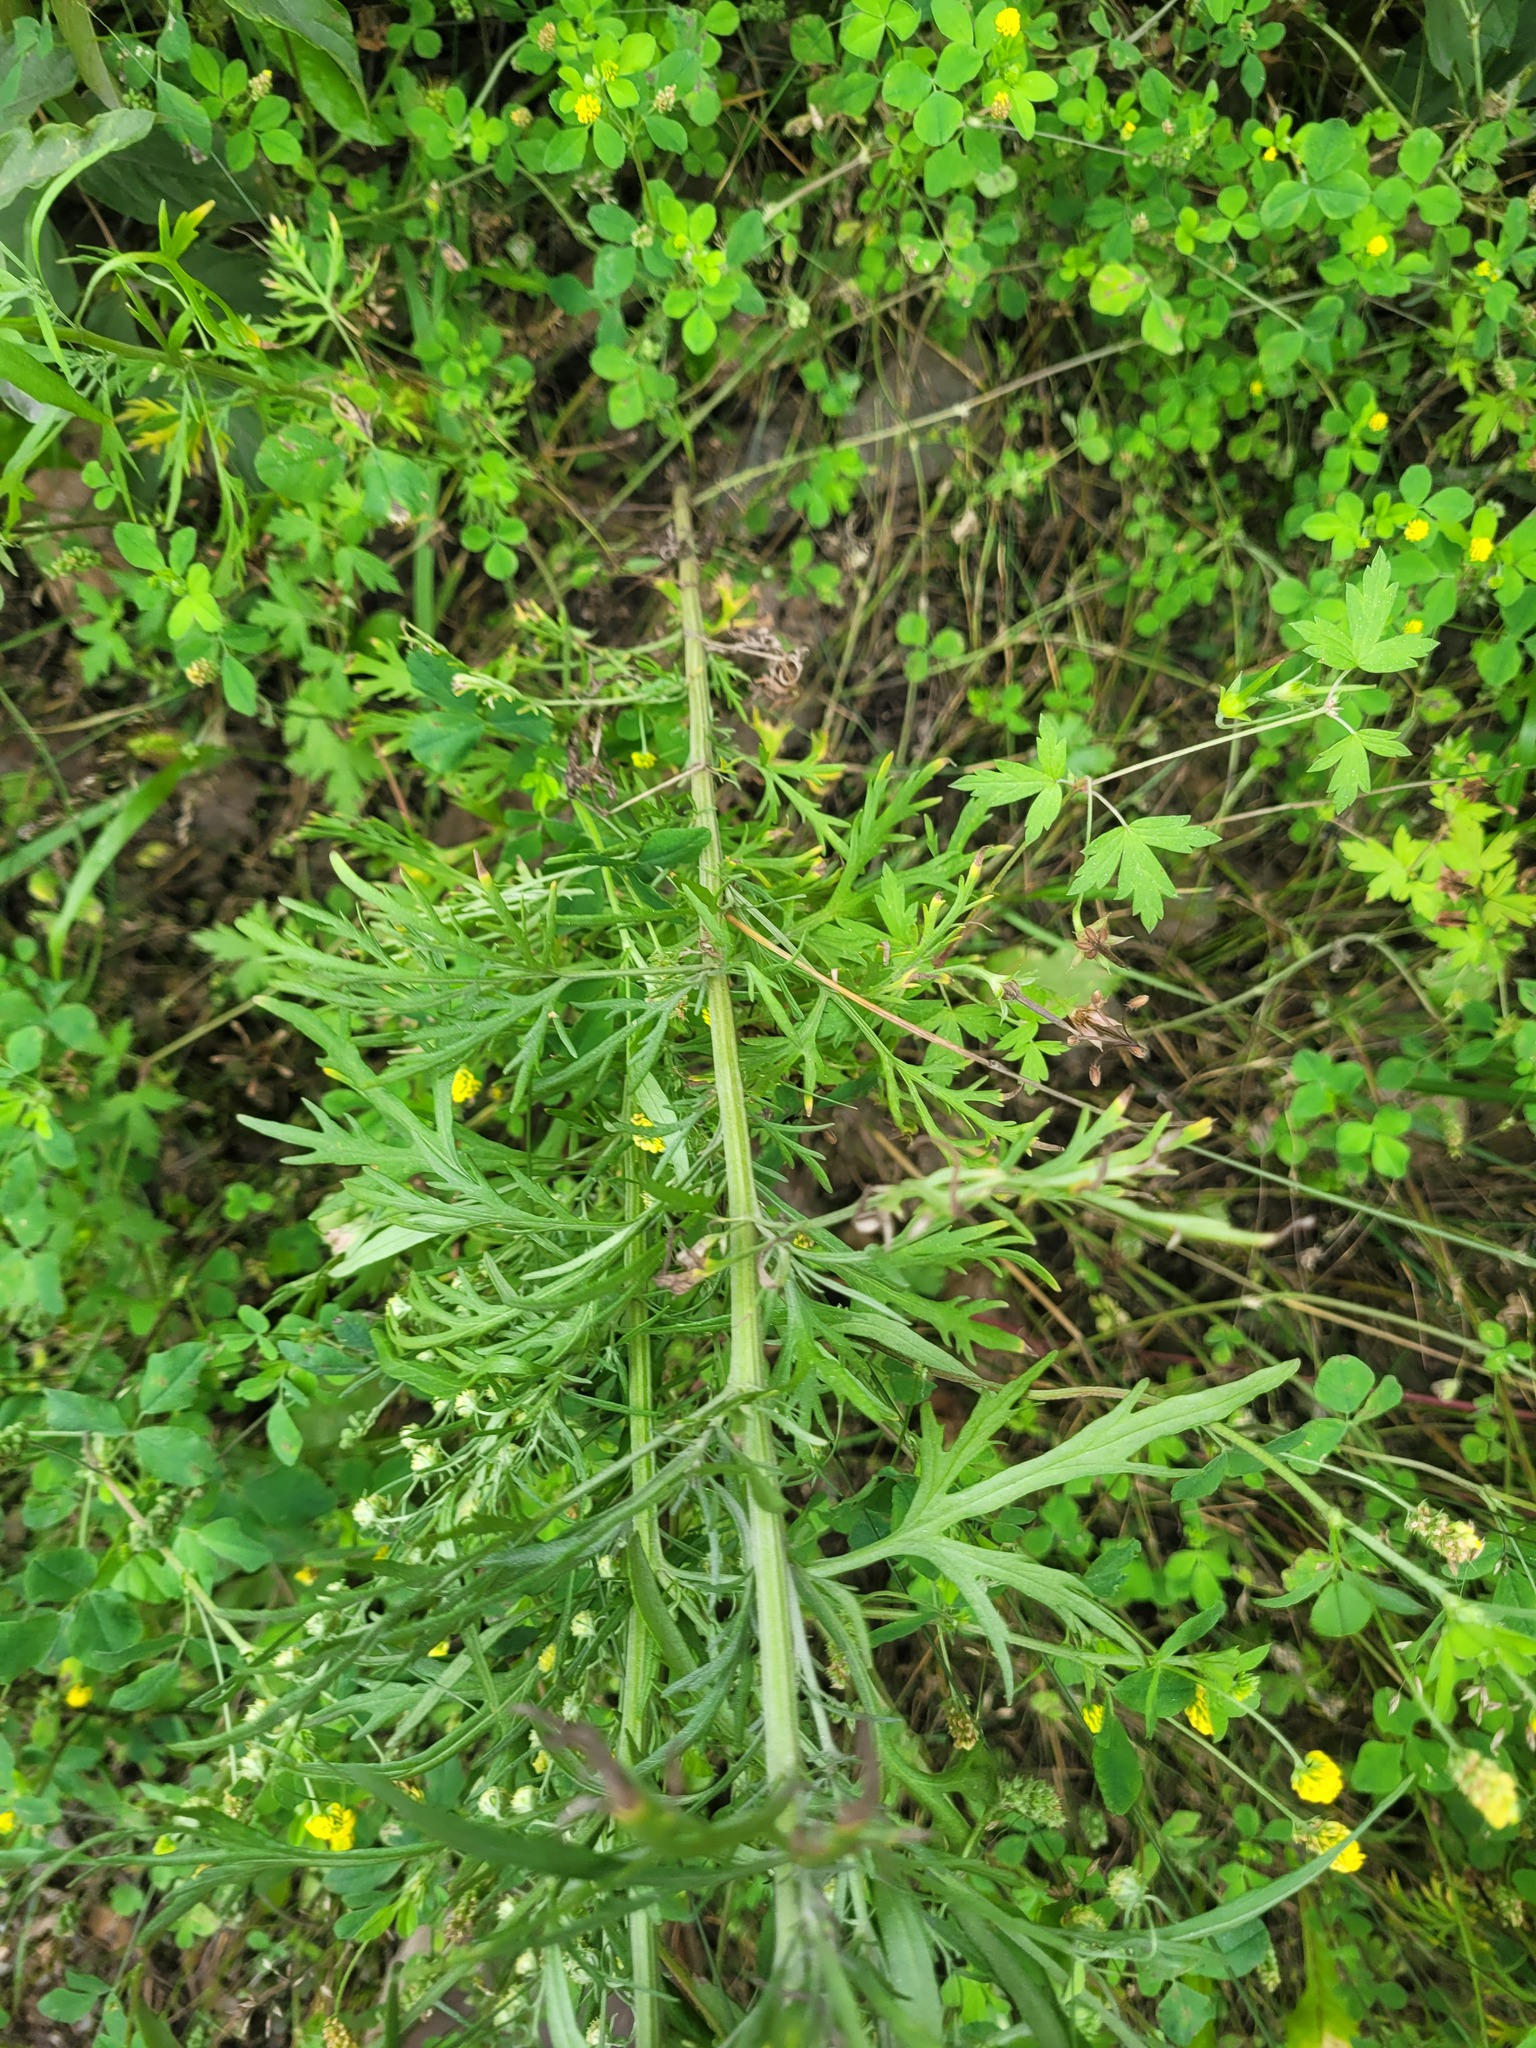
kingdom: Plantae
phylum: Tracheophyta
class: Magnoliopsida
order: Asterales
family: Asteraceae
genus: Artemisia
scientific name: Artemisia sieversiana
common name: Sieversian wormwood
